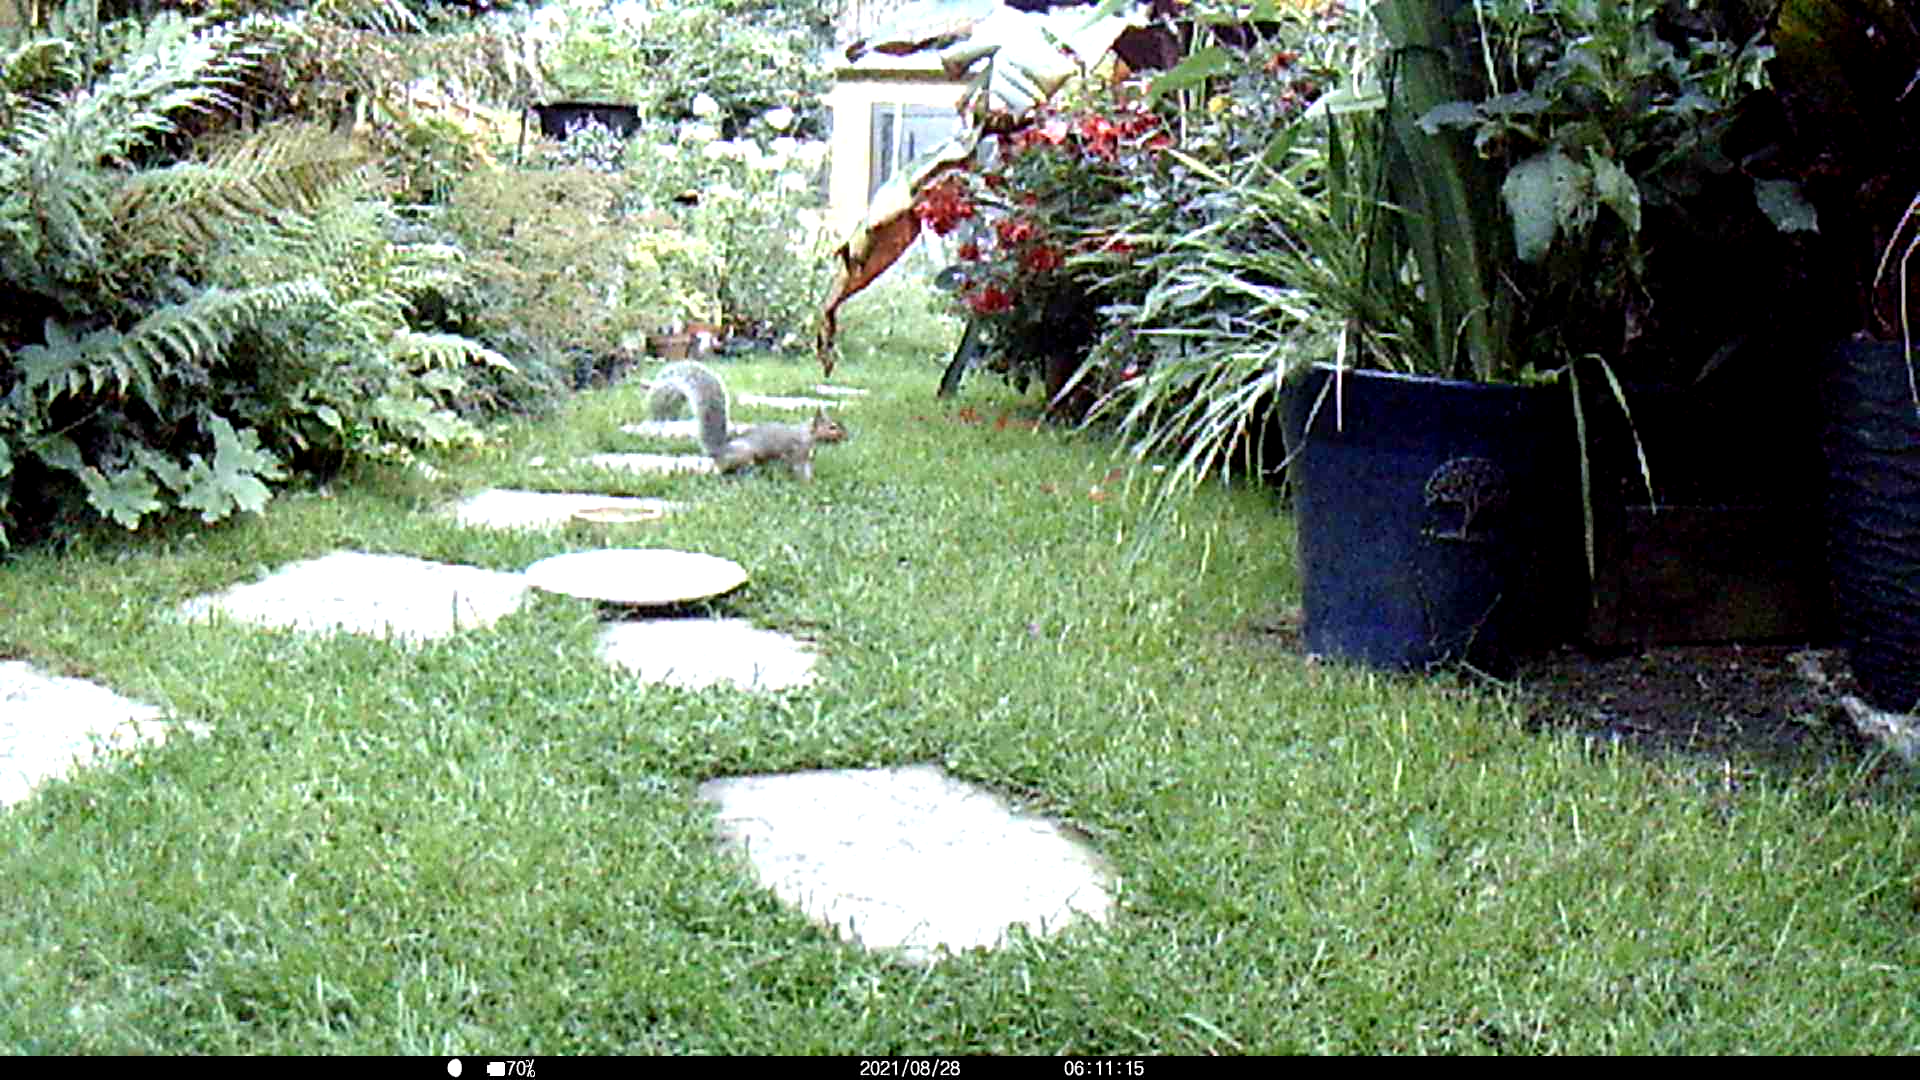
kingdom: Animalia
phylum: Chordata
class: Mammalia
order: Rodentia
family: Sciuridae
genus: Sciurus
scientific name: Sciurus carolinensis
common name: Eastern gray squirrel
